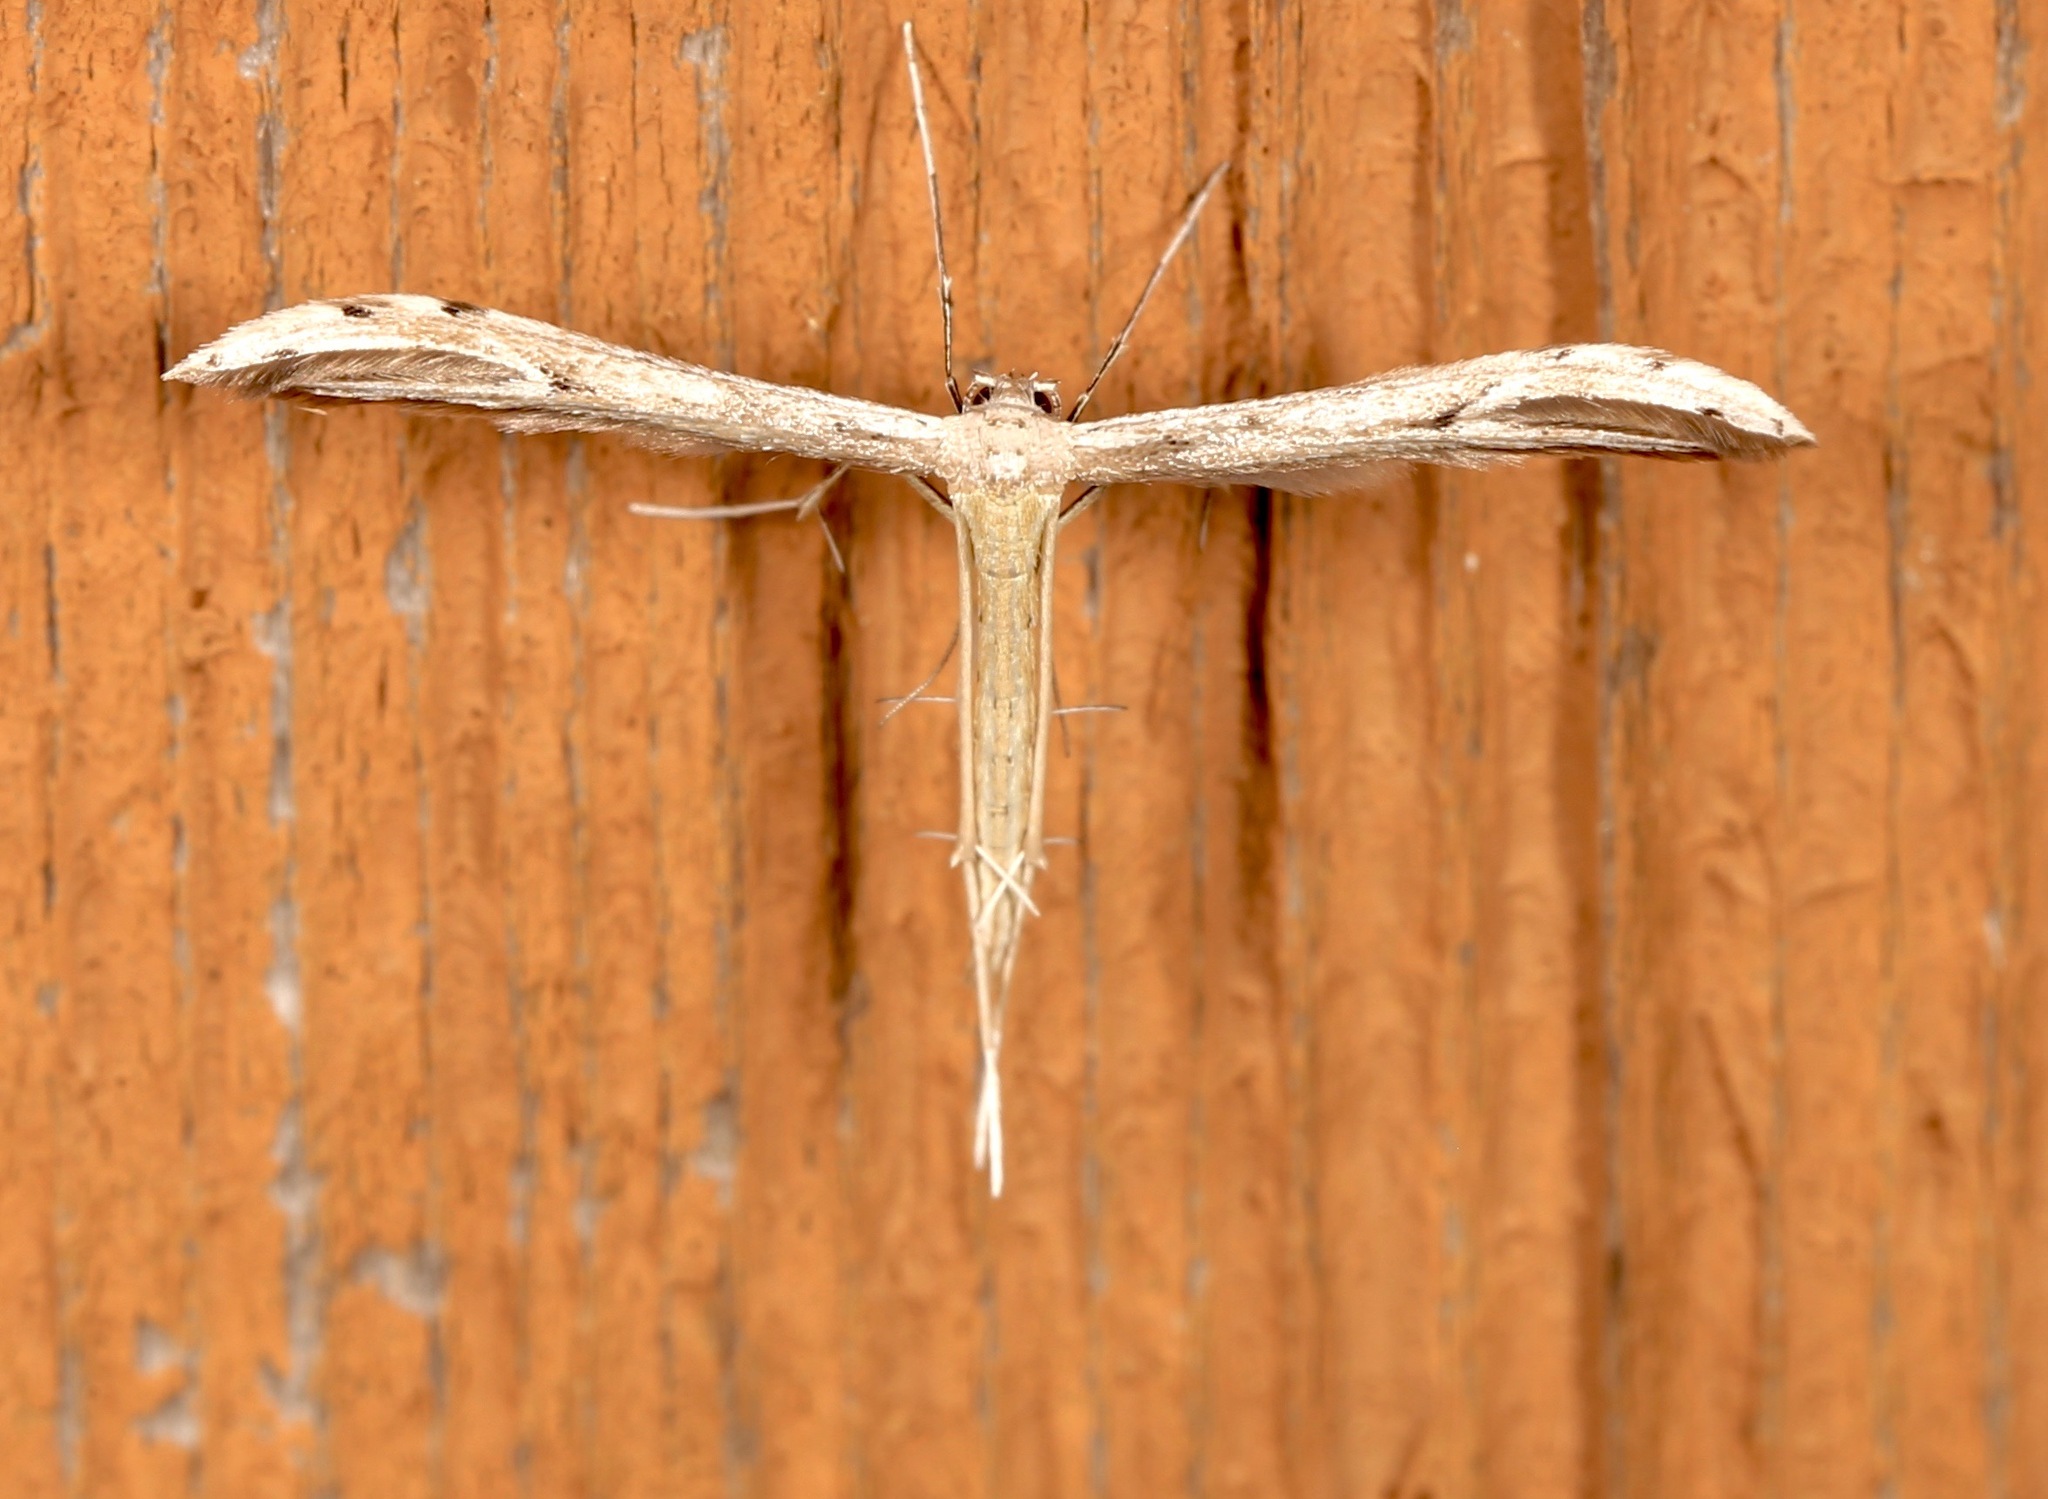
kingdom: Animalia
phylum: Arthropoda
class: Insecta
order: Lepidoptera
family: Pterophoridae
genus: Pselnophorus
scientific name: Pselnophorus belfragei
